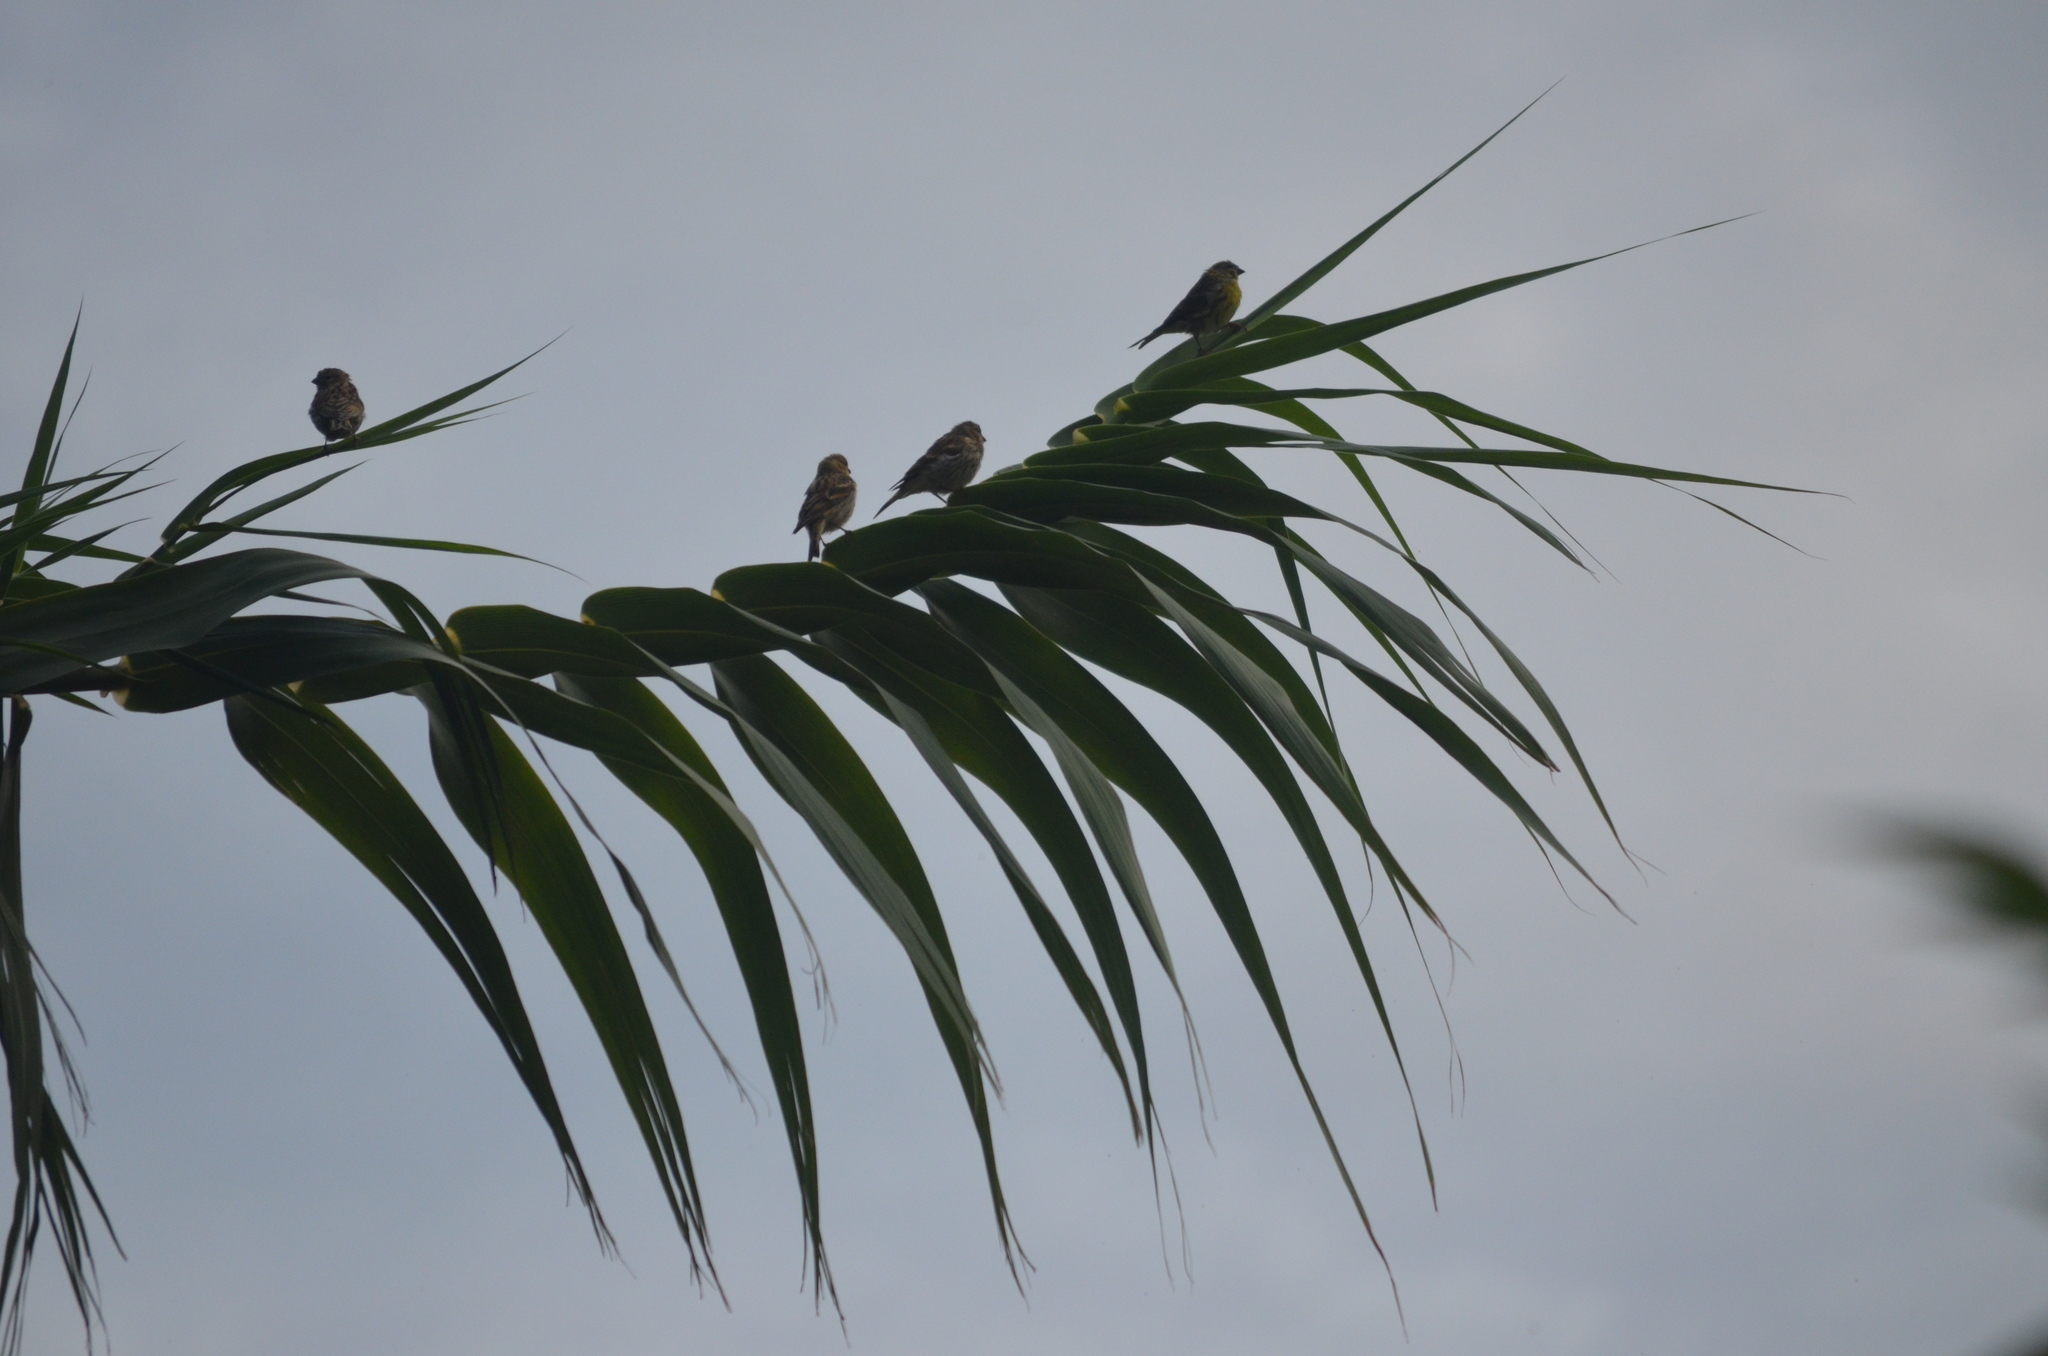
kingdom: Animalia
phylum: Chordata
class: Aves
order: Passeriformes
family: Fringillidae
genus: Serinus
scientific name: Serinus serinus
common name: European serin
